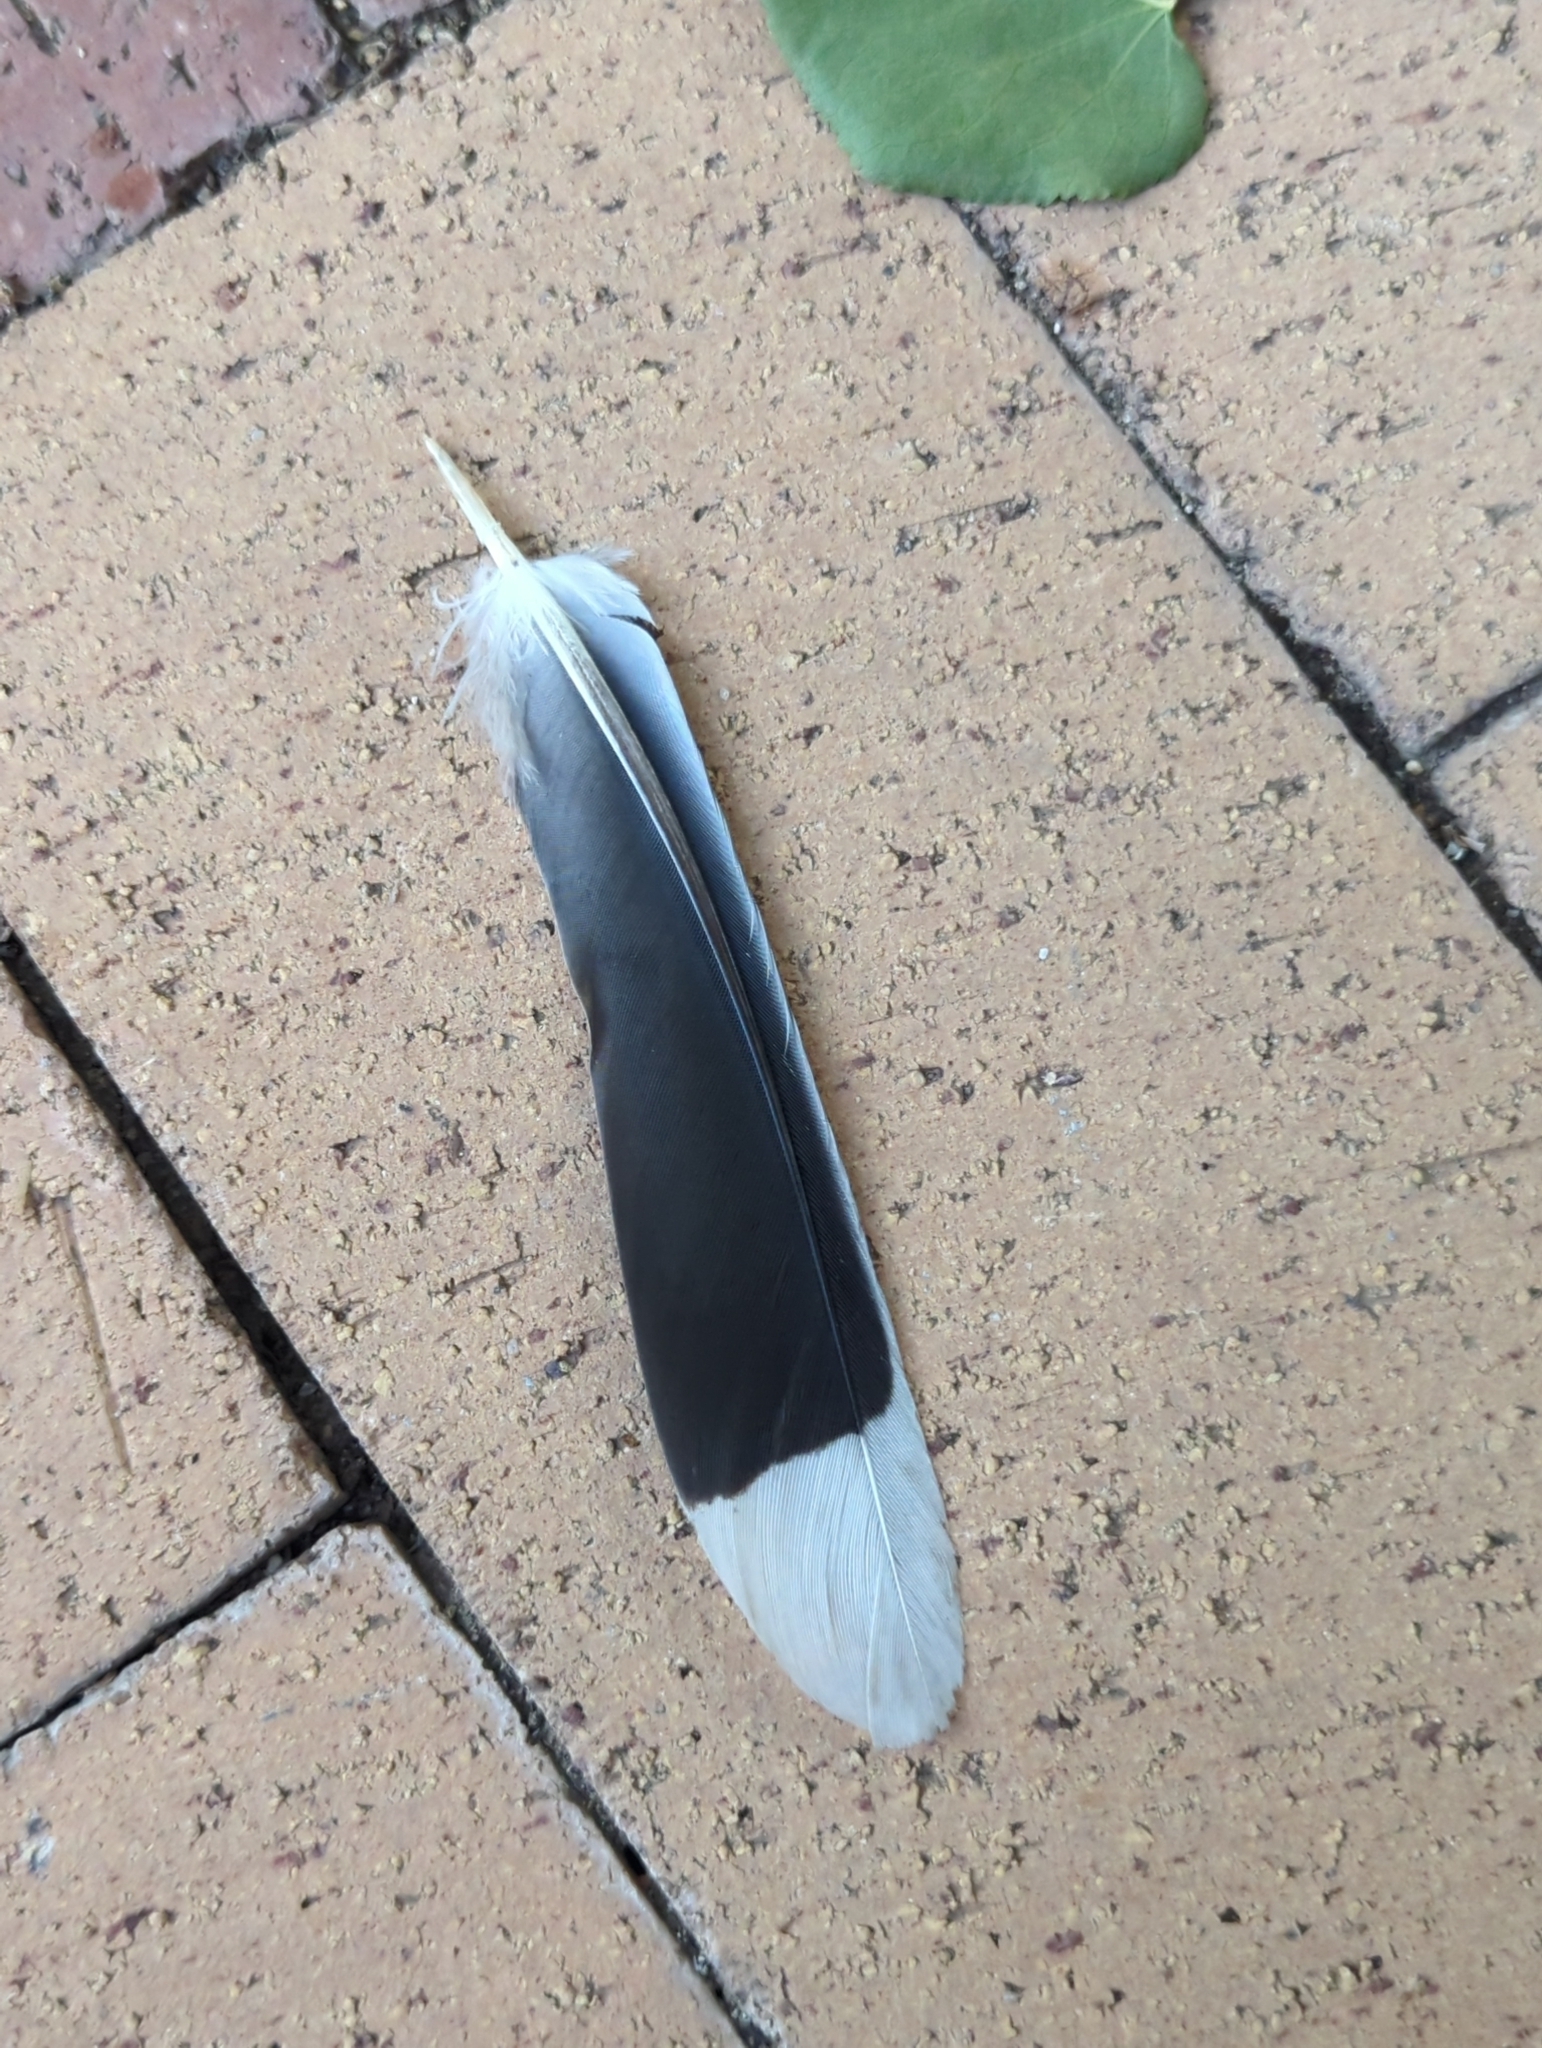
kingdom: Animalia
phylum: Chordata
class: Aves
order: Columbiformes
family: Columbidae
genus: Zenaida
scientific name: Zenaida asiatica
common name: White-winged dove
